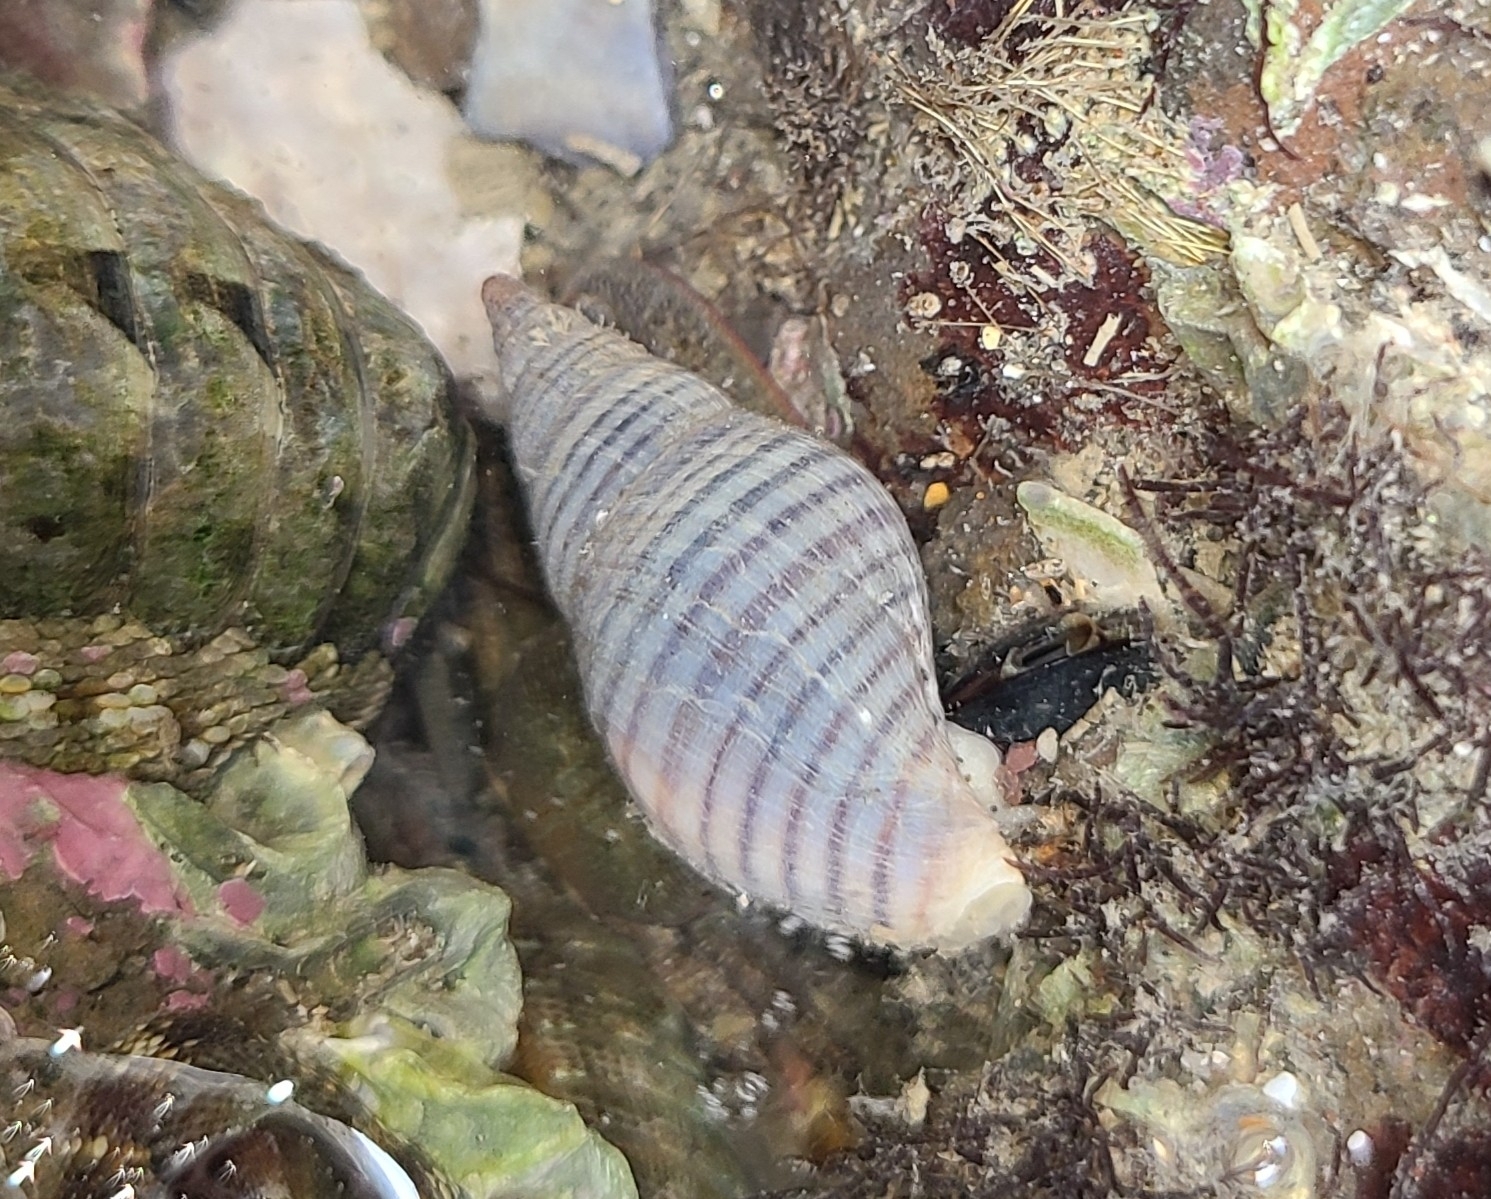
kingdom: Animalia
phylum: Mollusca
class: Gastropoda
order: Neogastropoda
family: Tudiclidae
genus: Buccinulum
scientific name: Buccinulum littorinoides
